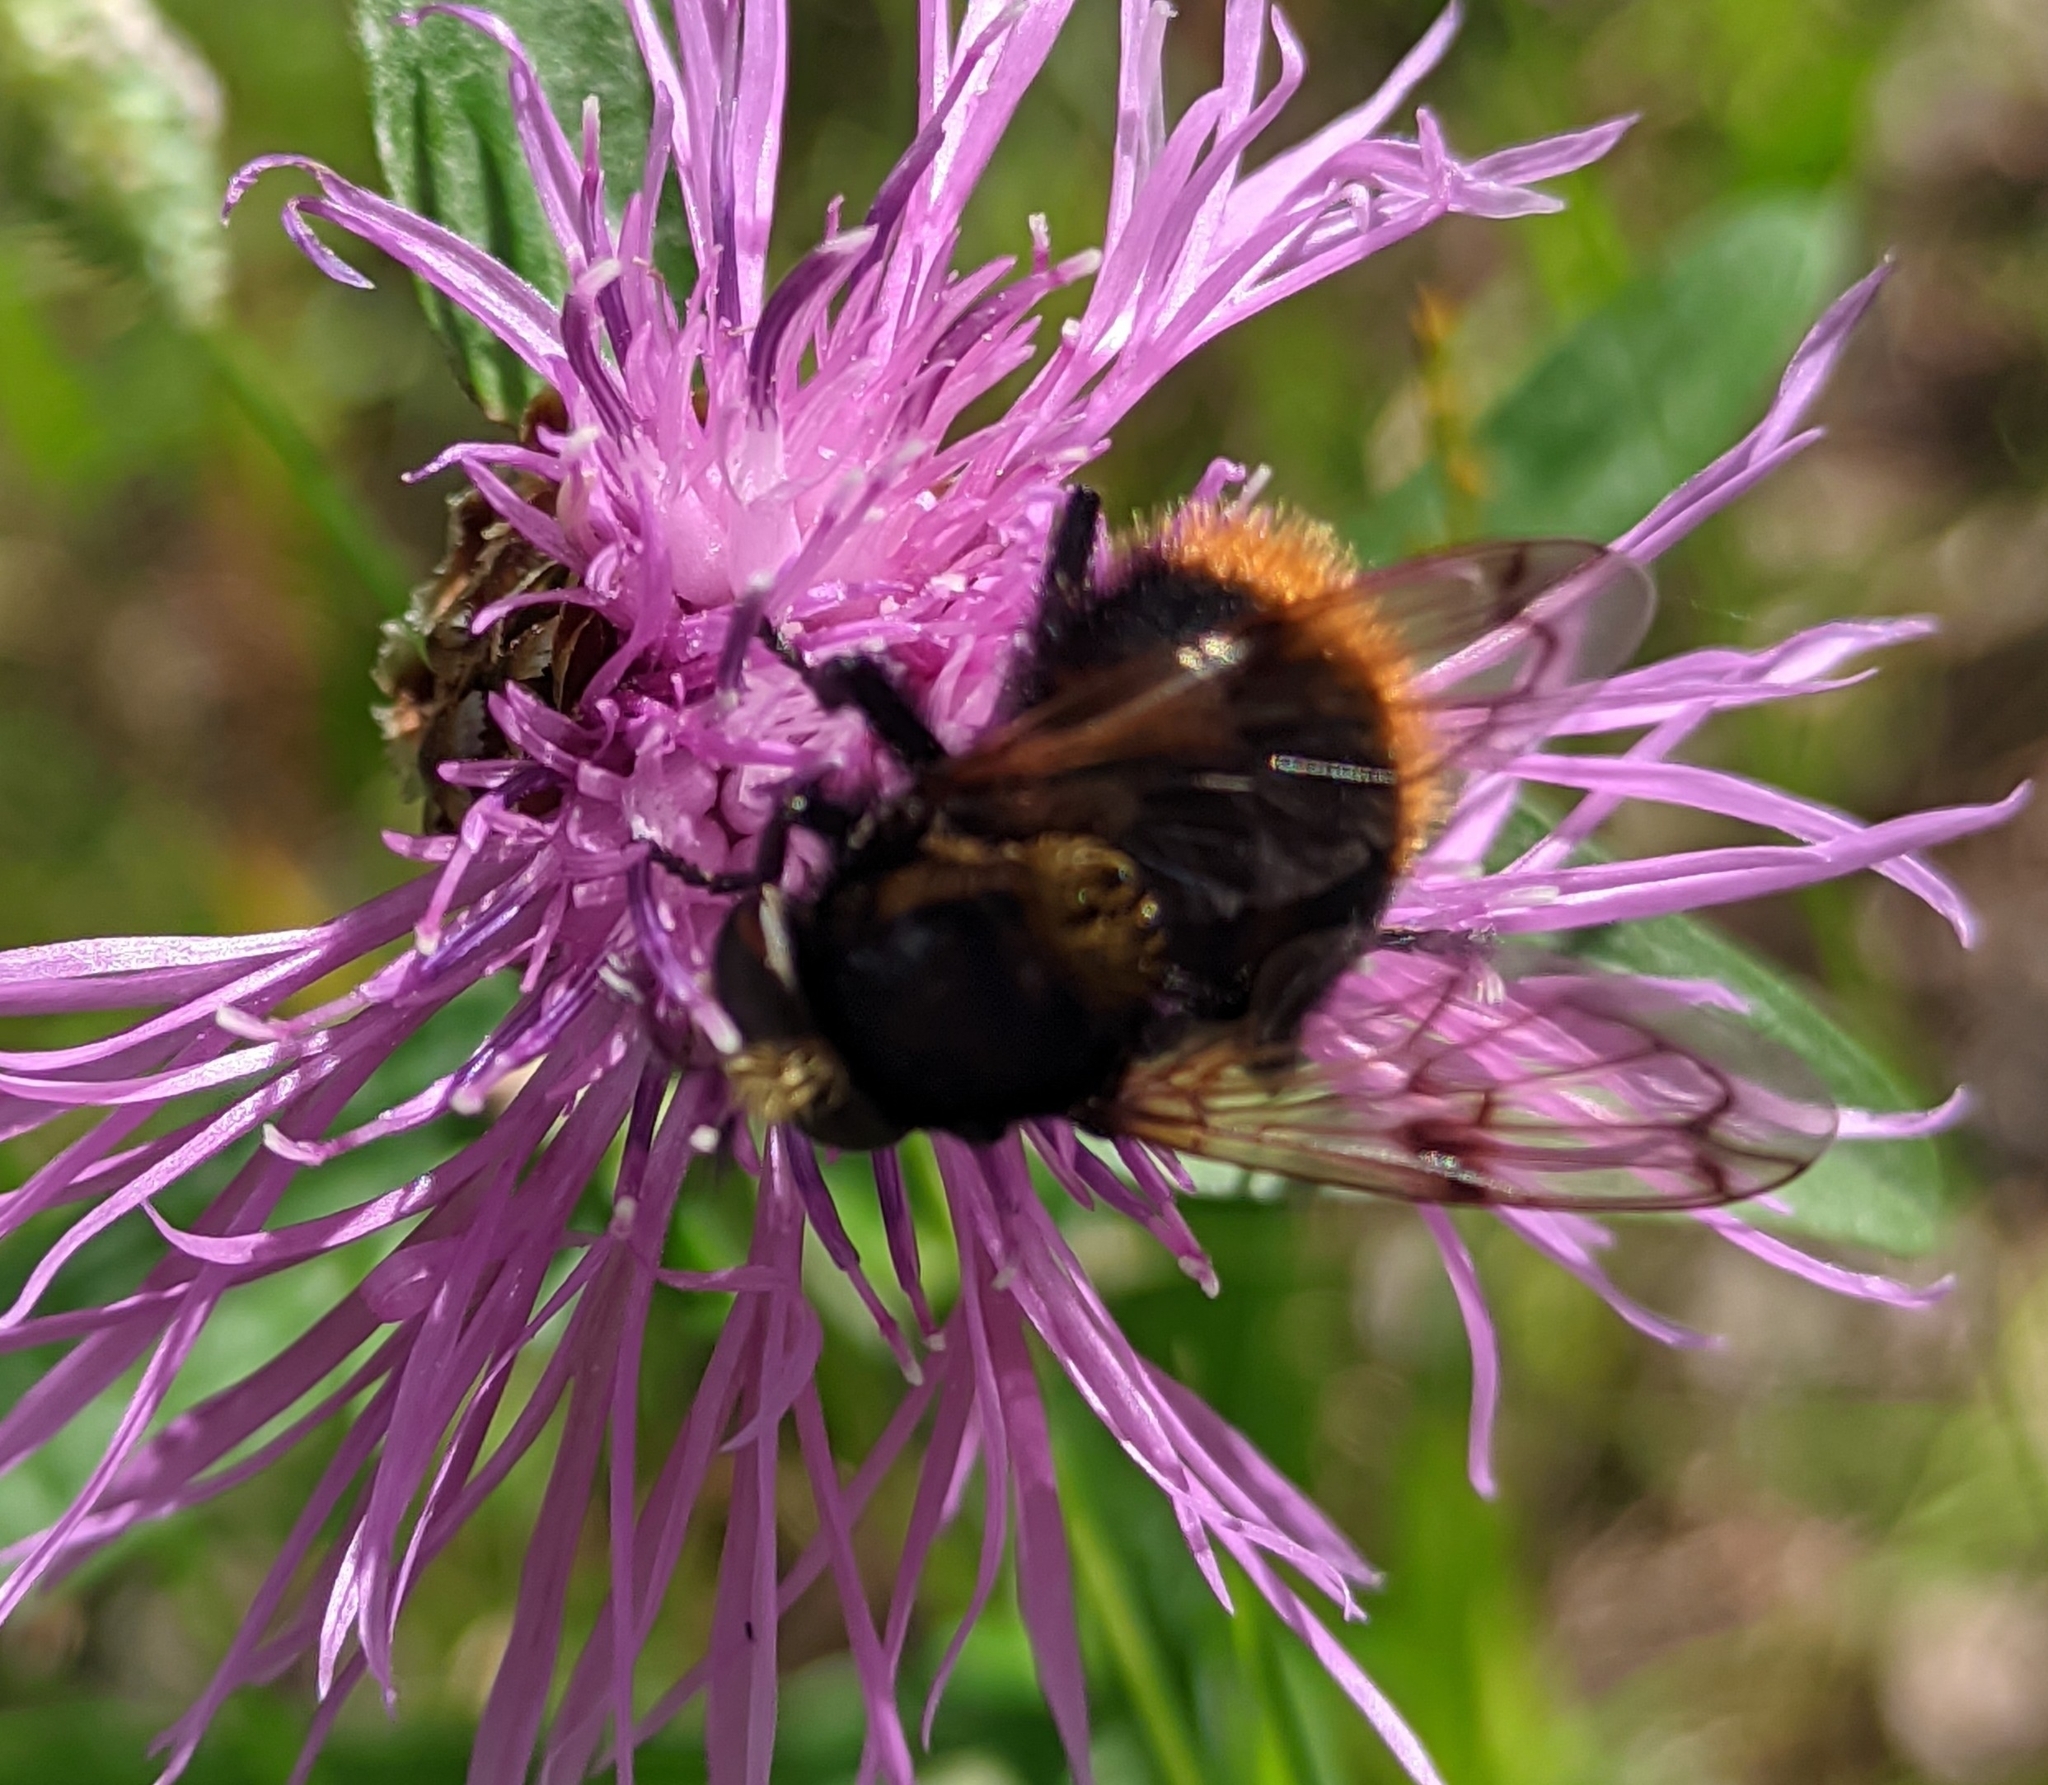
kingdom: Animalia
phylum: Arthropoda
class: Insecta
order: Diptera
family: Syrphidae
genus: Volucella
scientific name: Volucella bombylans
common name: Bumble bee hover fly
